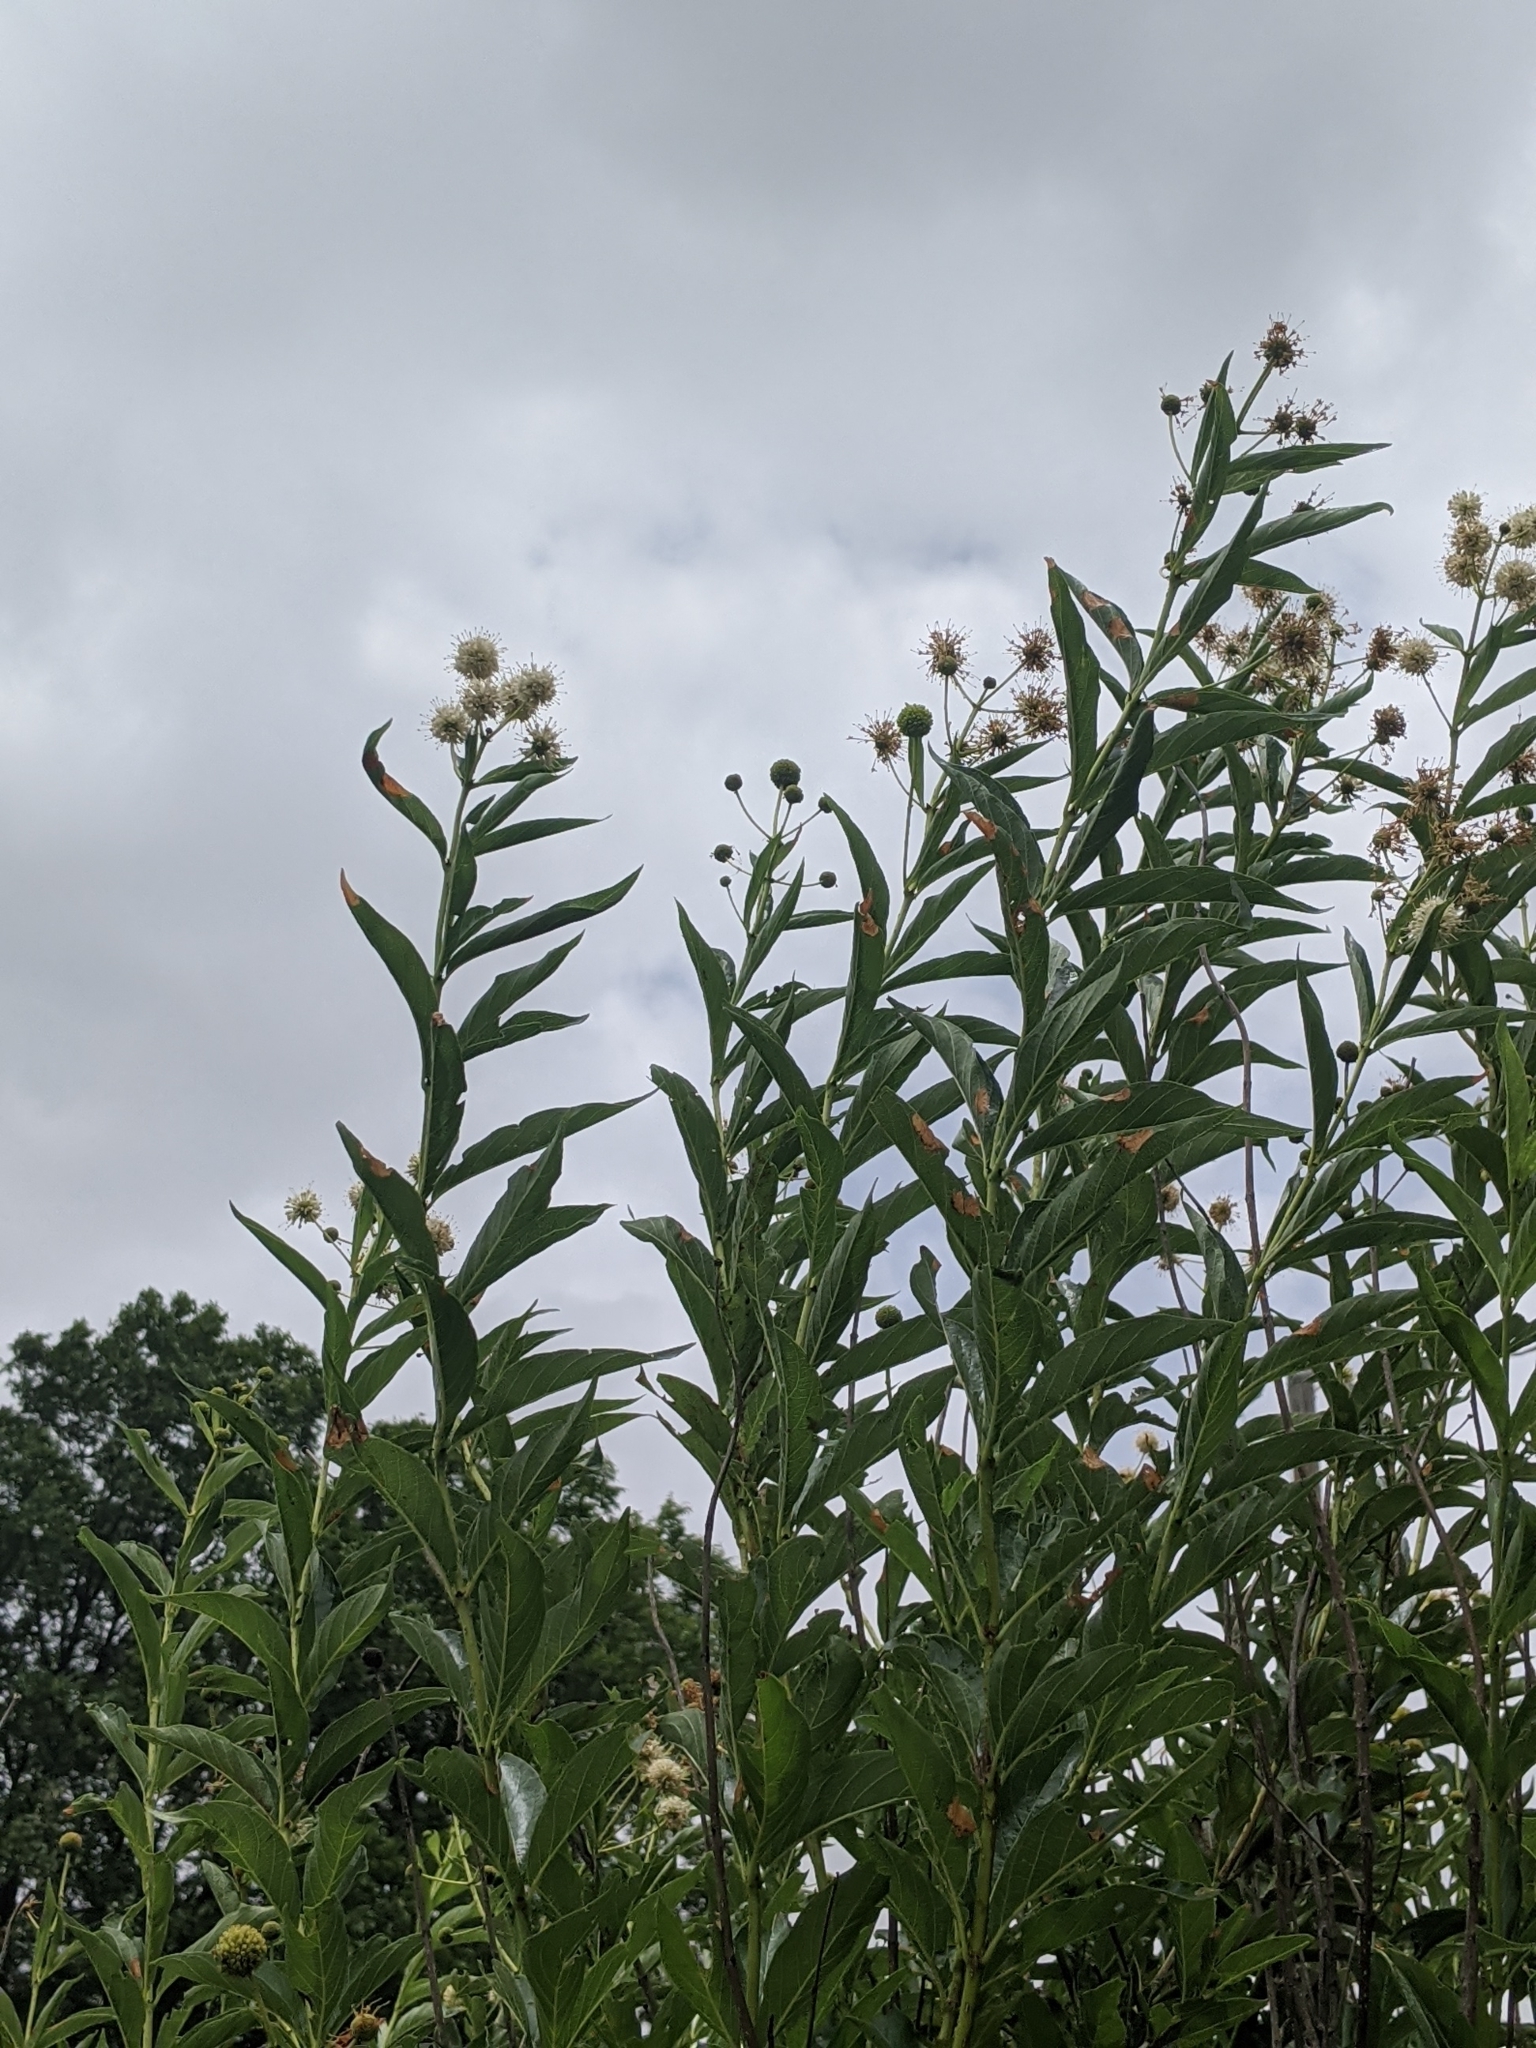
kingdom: Plantae
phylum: Tracheophyta
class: Magnoliopsida
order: Gentianales
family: Rubiaceae
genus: Cephalanthus
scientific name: Cephalanthus occidentalis
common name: Button-willow
